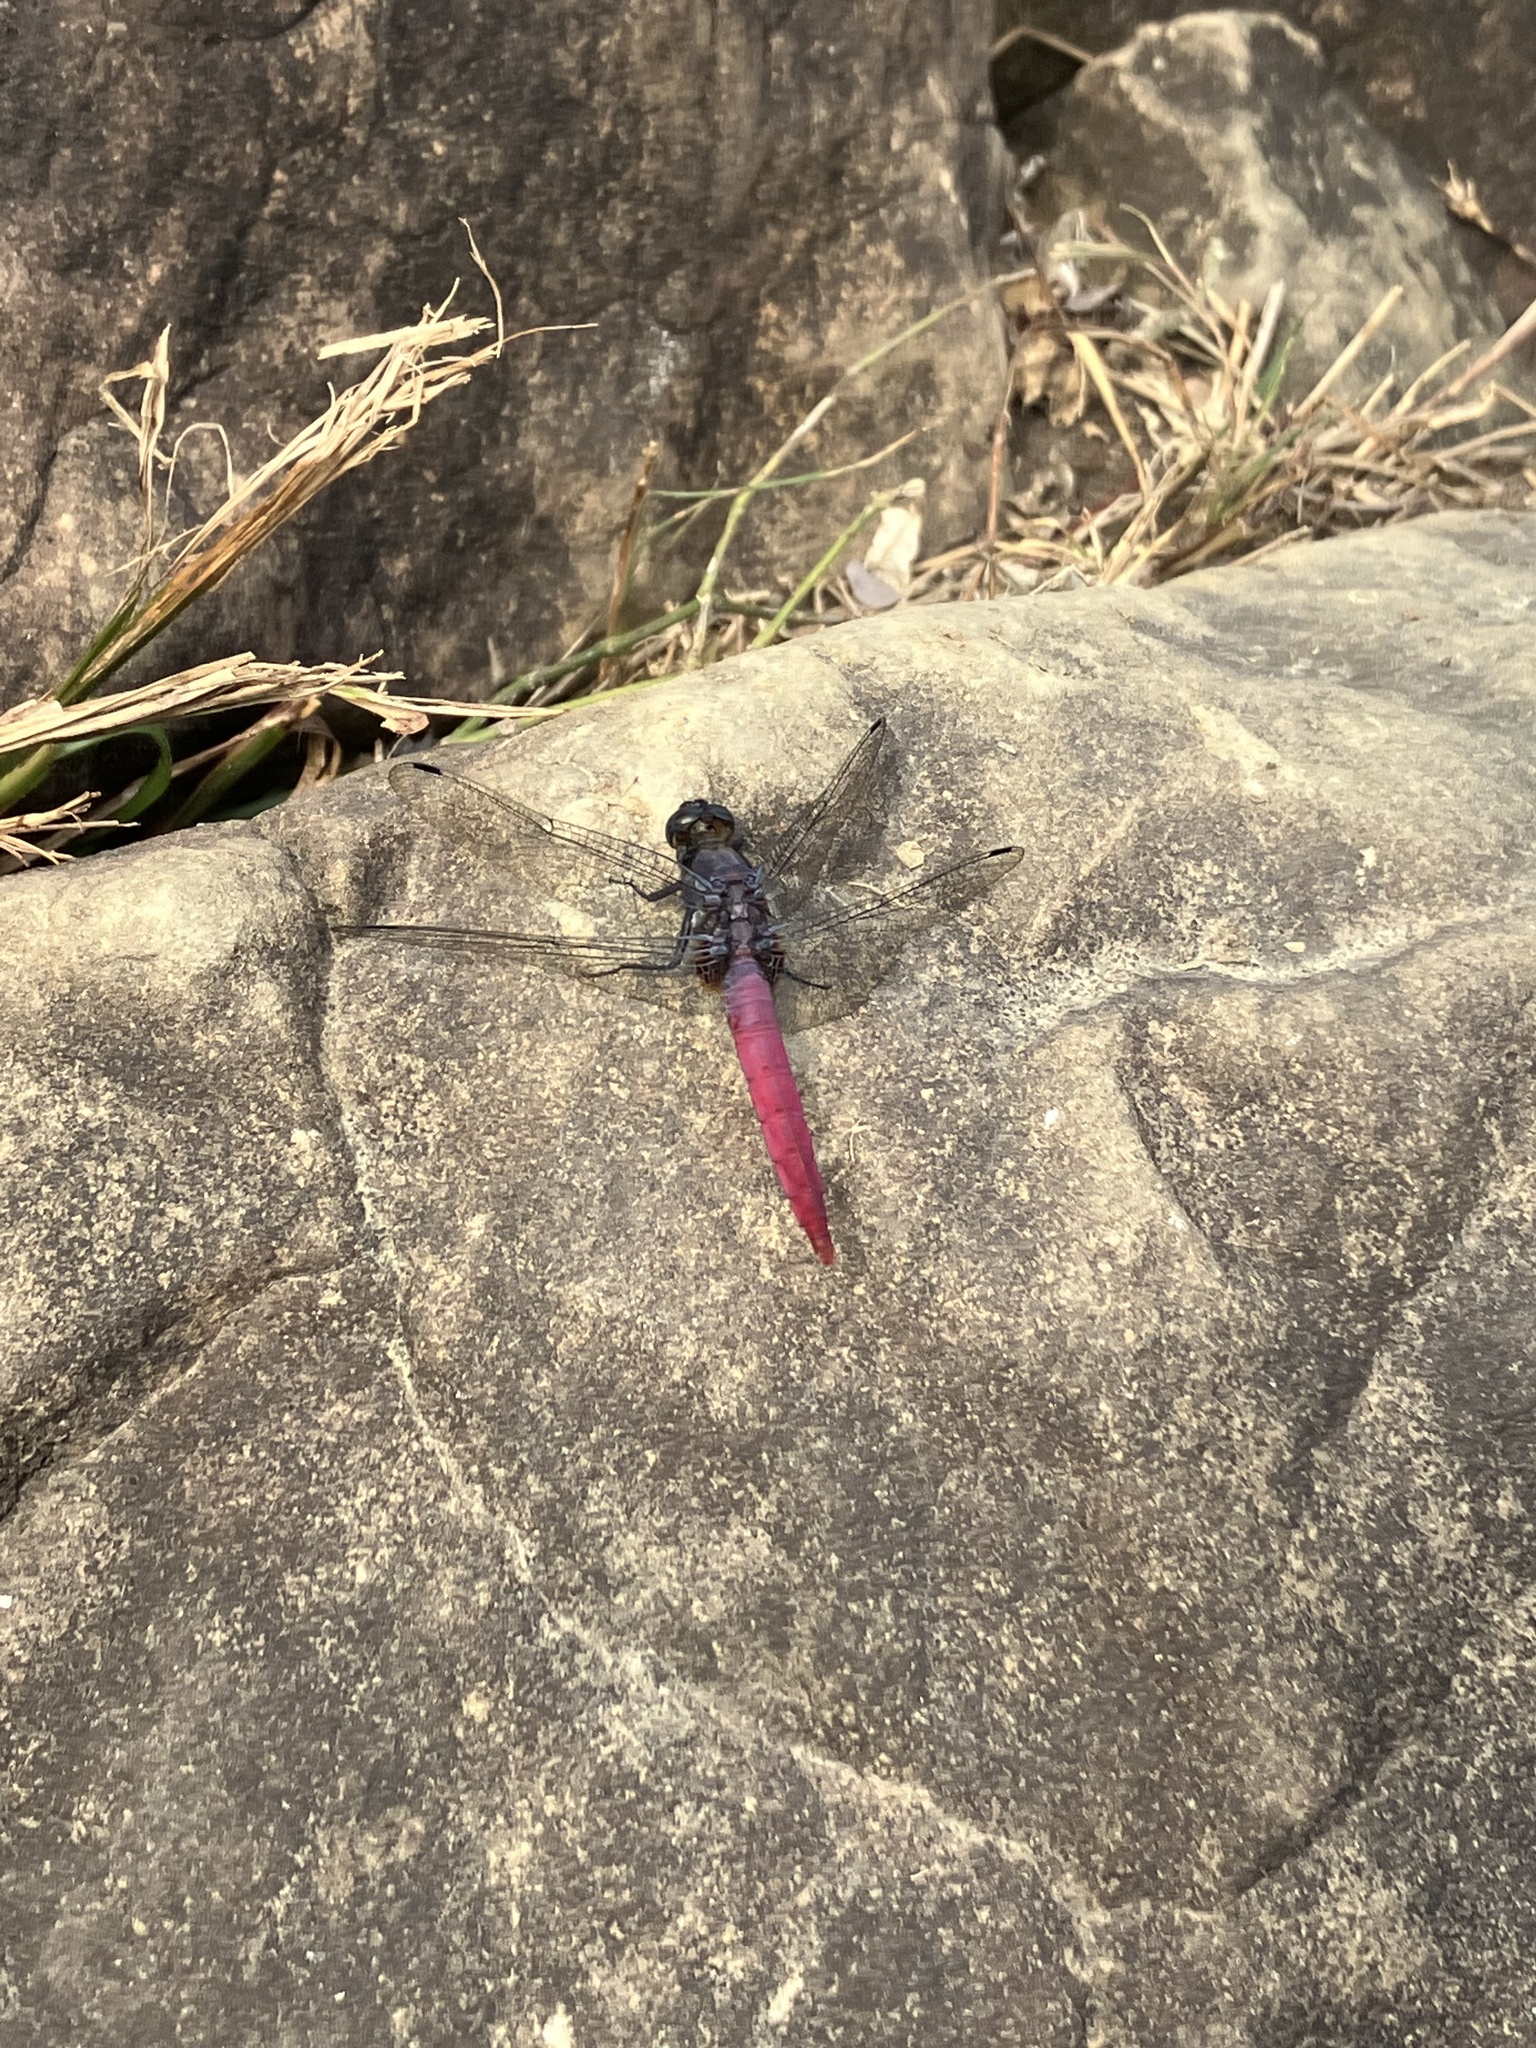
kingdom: Animalia
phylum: Arthropoda
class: Insecta
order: Odonata
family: Libellulidae
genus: Orthetrum
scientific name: Orthetrum pruinosum
